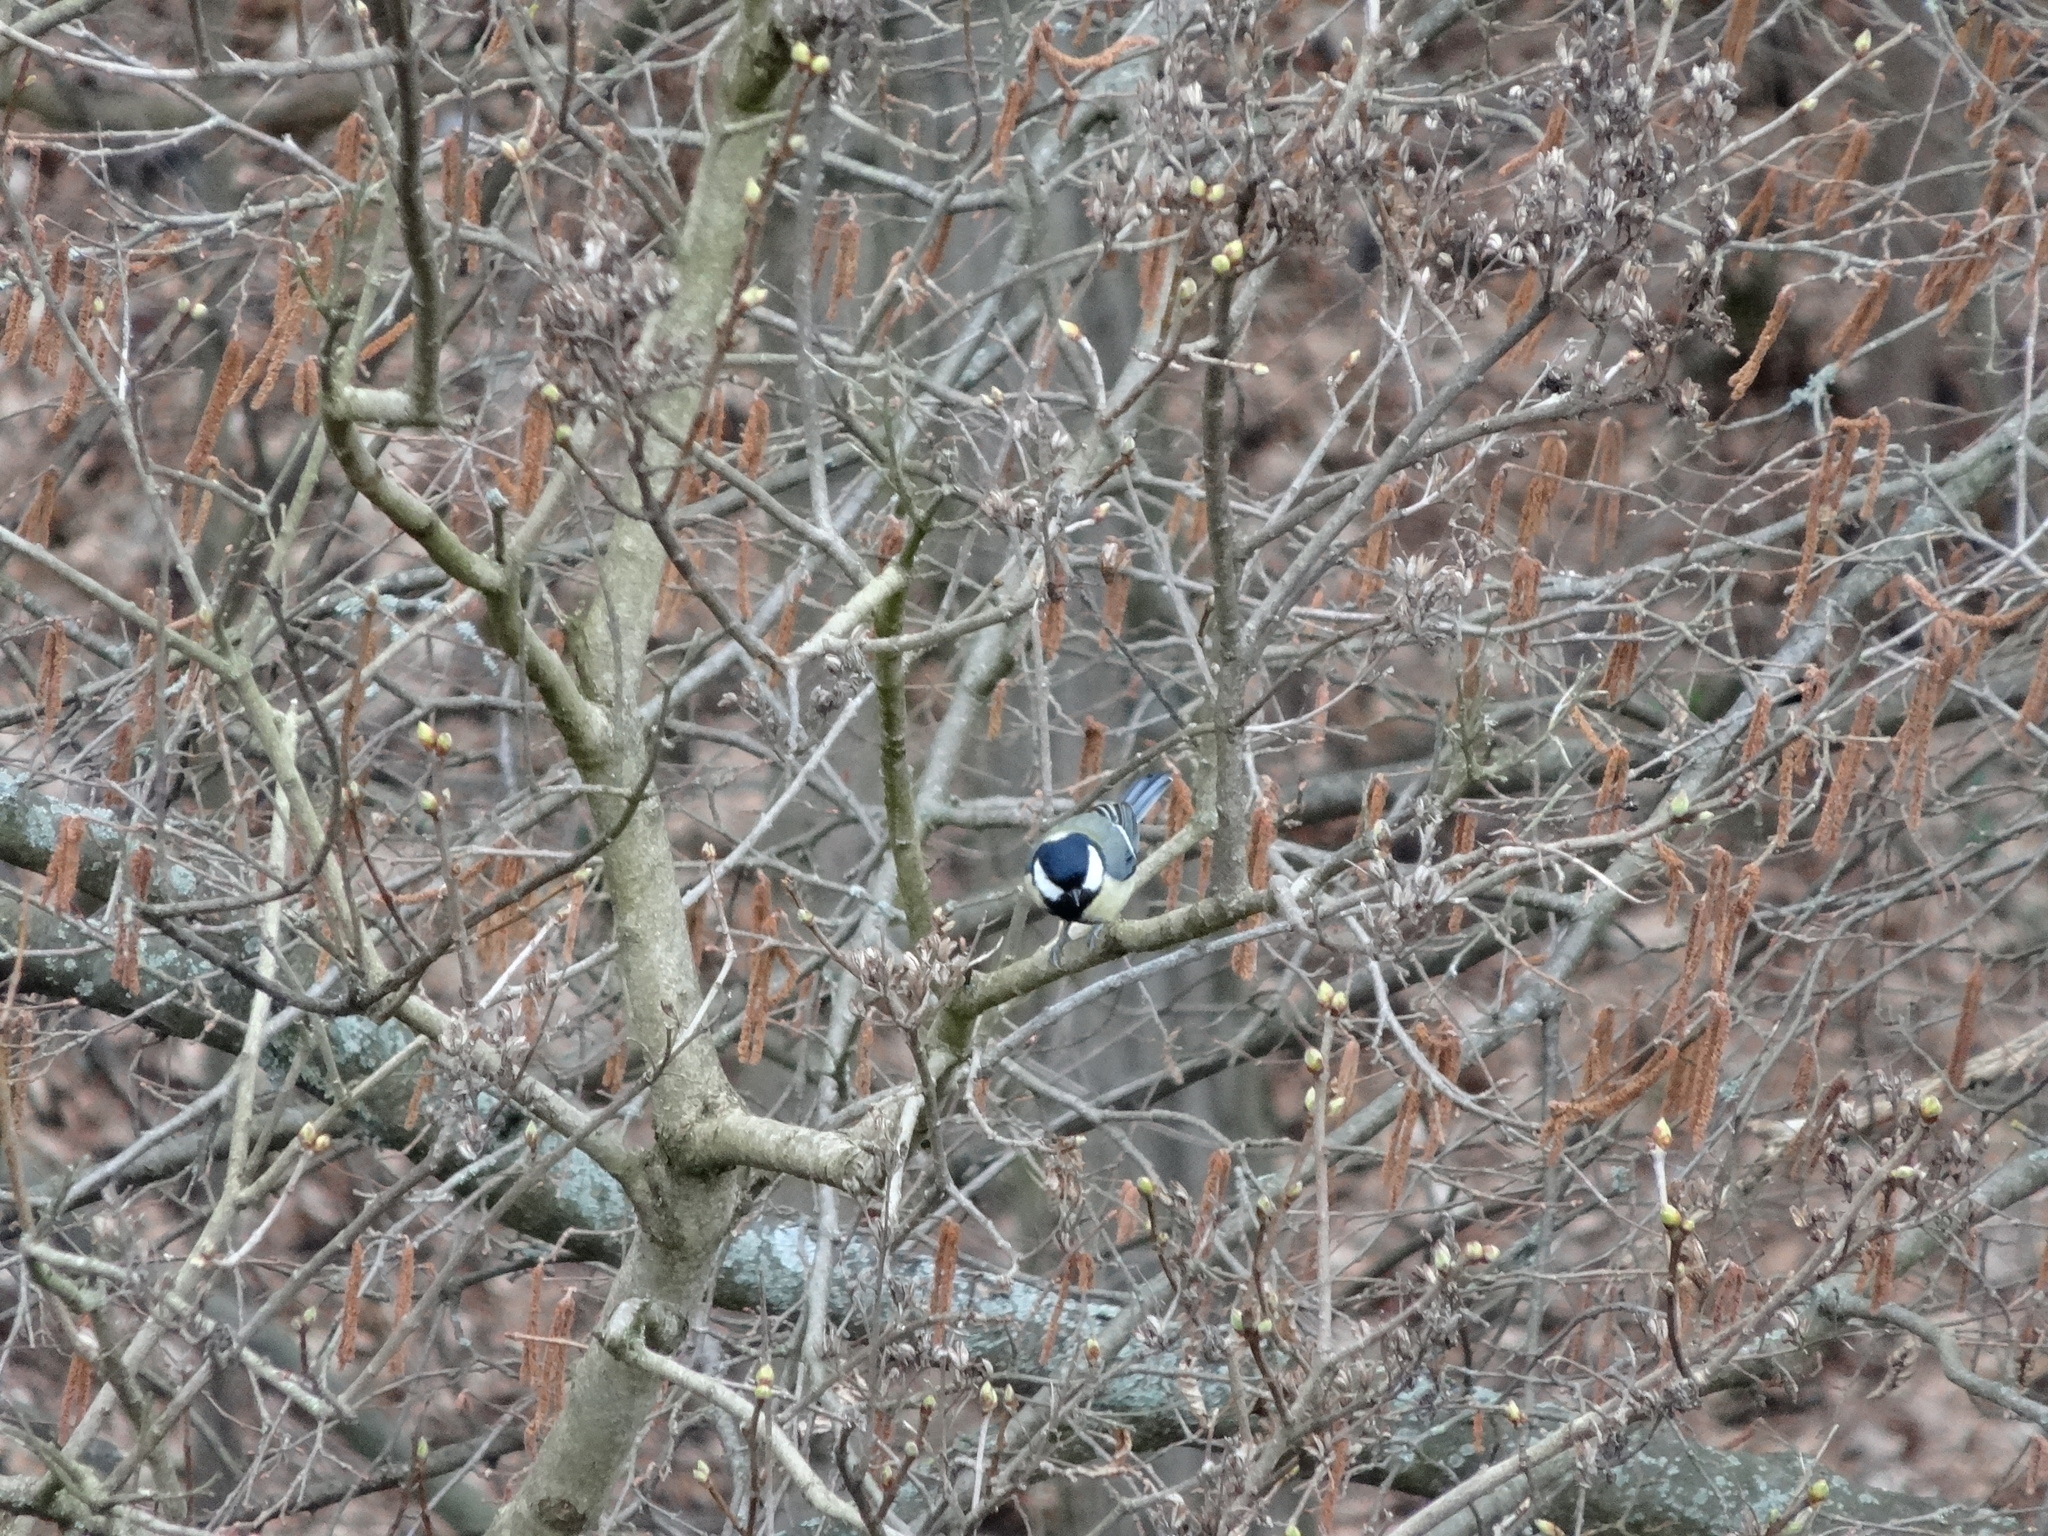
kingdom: Animalia
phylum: Chordata
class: Aves
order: Passeriformes
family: Paridae
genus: Parus
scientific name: Parus major
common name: Great tit
